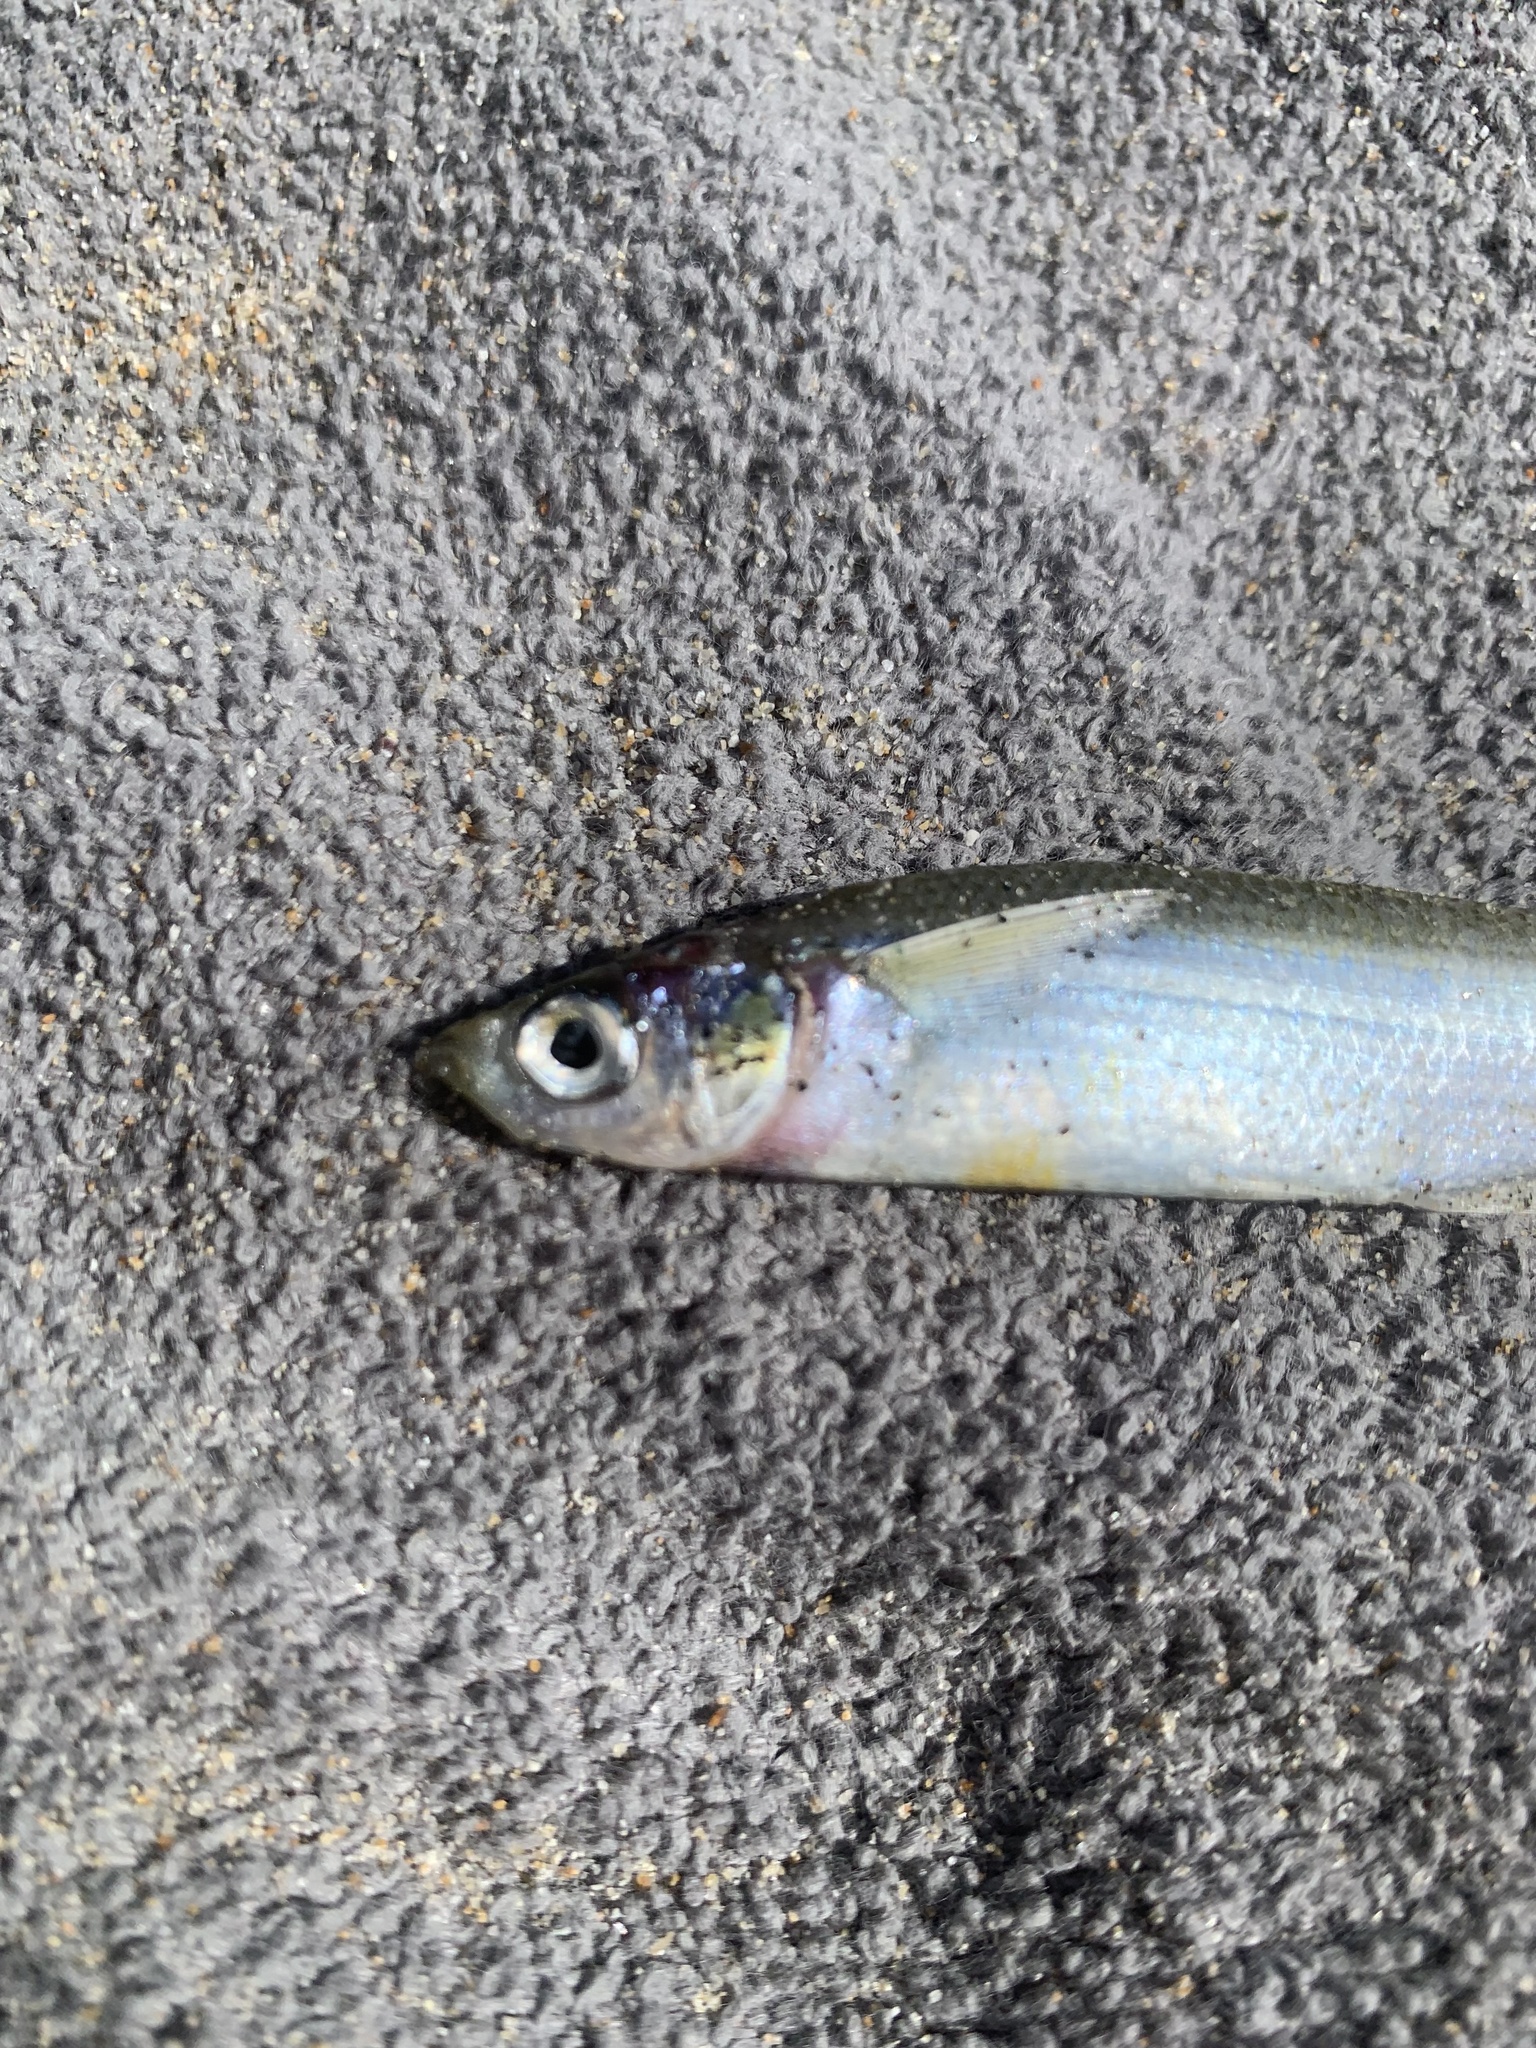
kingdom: Animalia
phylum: Chordata
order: Atheriniformes
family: Atherinopsidae
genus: Atherinops
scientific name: Atherinops affinis
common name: Topsmelt
